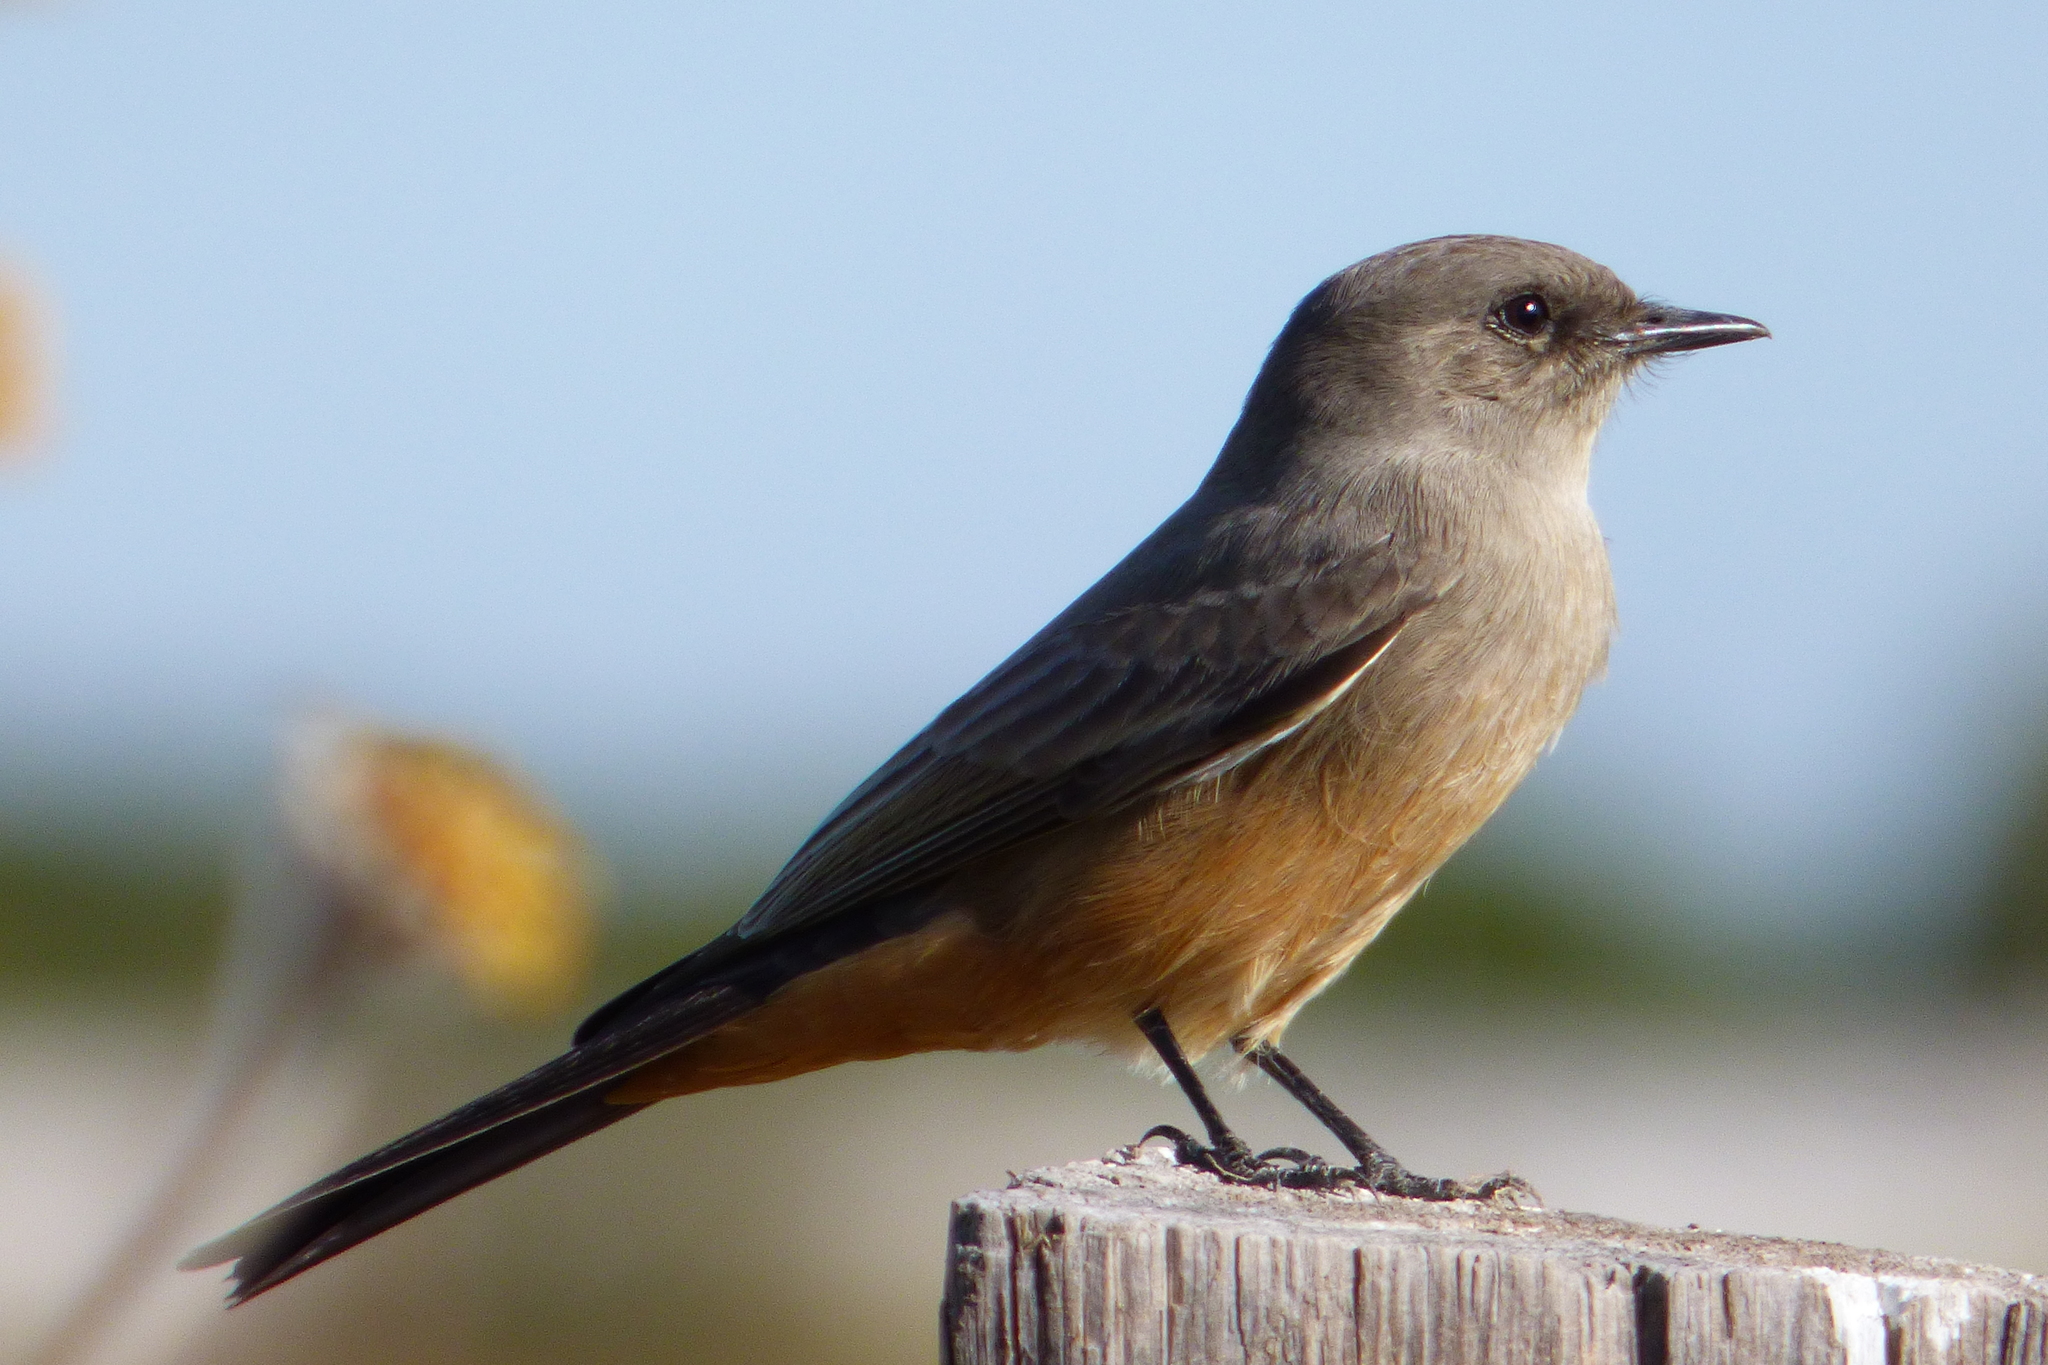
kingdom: Animalia
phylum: Chordata
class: Aves
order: Passeriformes
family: Tyrannidae
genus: Sayornis
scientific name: Sayornis saya
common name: Say's phoebe
